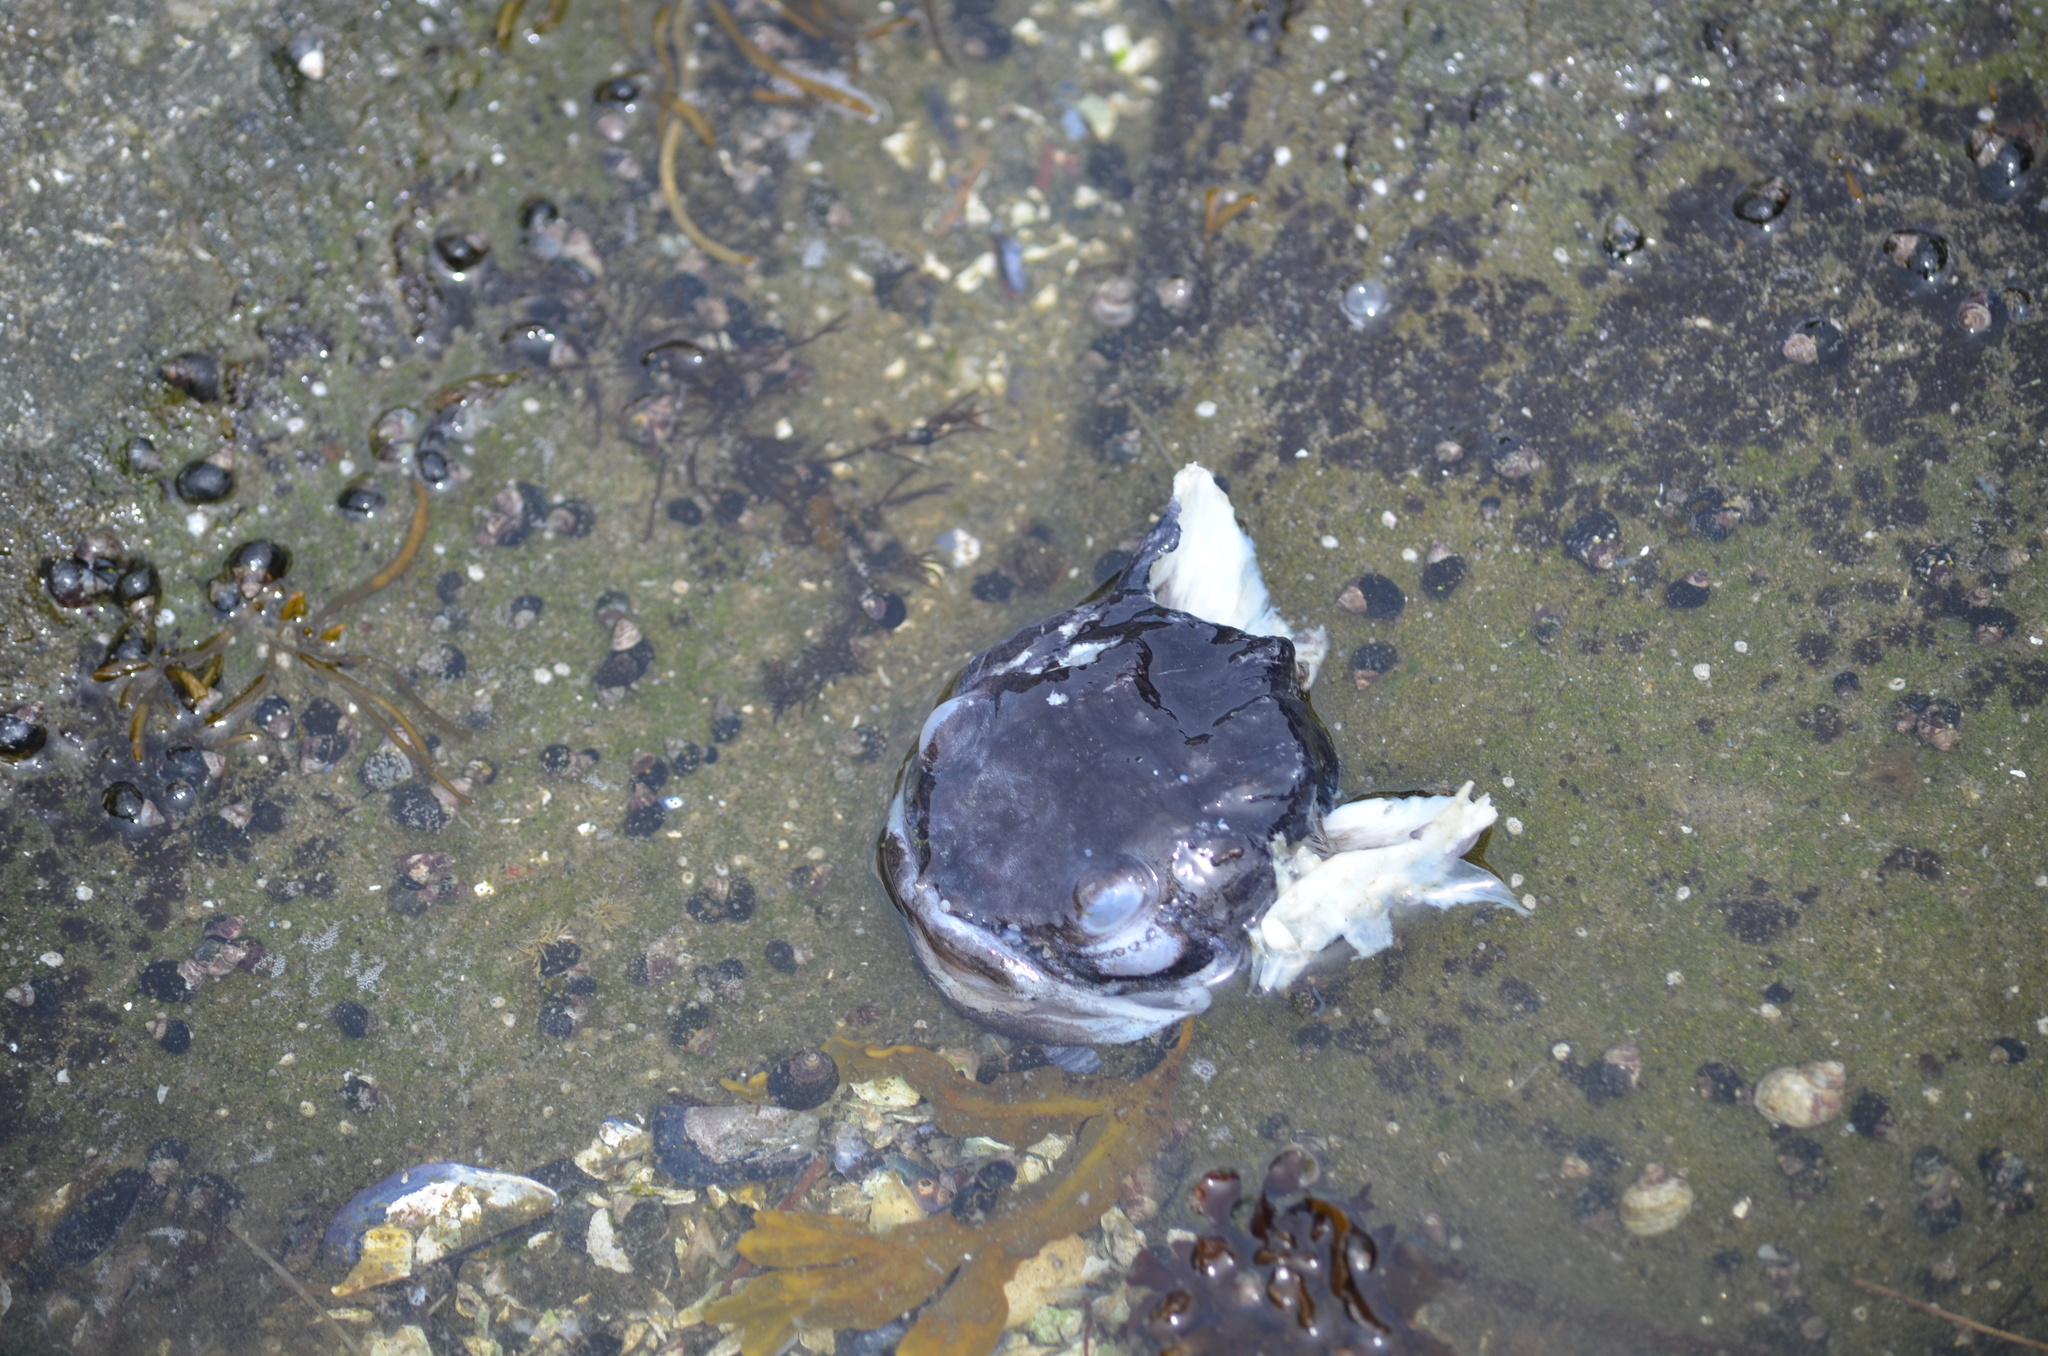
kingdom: Animalia
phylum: Chordata
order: Batrachoidiformes
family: Batrachoididae
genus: Porichthys
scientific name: Porichthys notatus
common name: Plainfin midshipman
